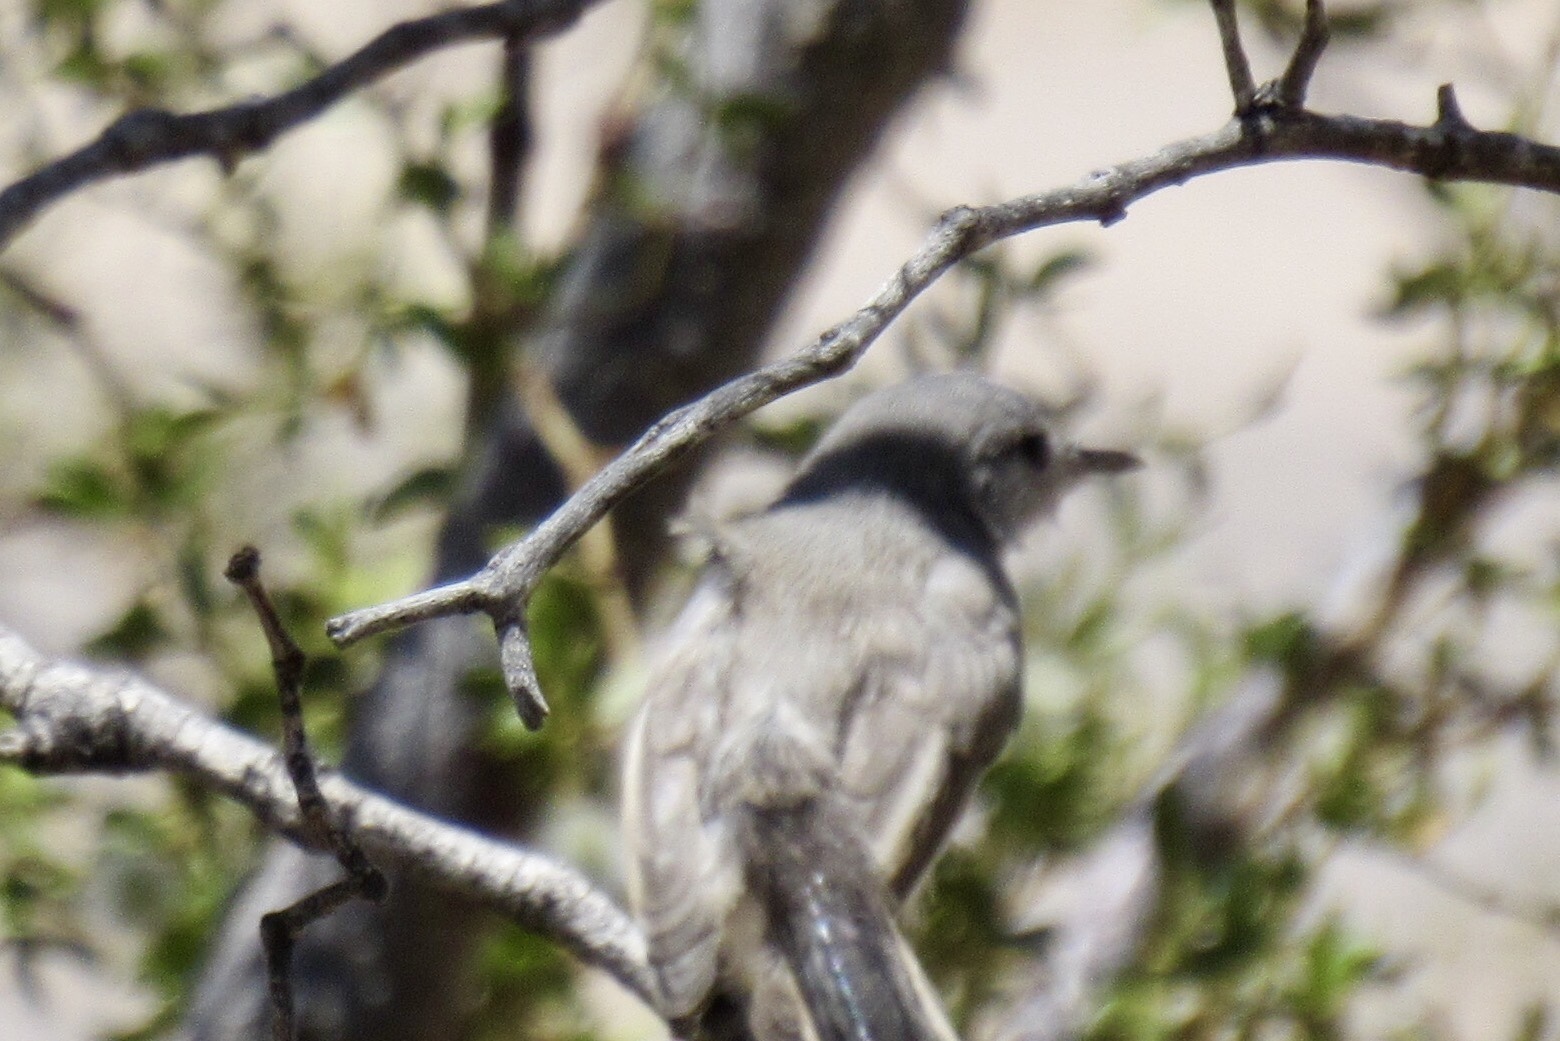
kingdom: Animalia
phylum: Chordata
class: Aves
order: Passeriformes
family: Polioptilidae
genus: Polioptila
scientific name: Polioptila melanura
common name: Black-tailed gnatcatcher
